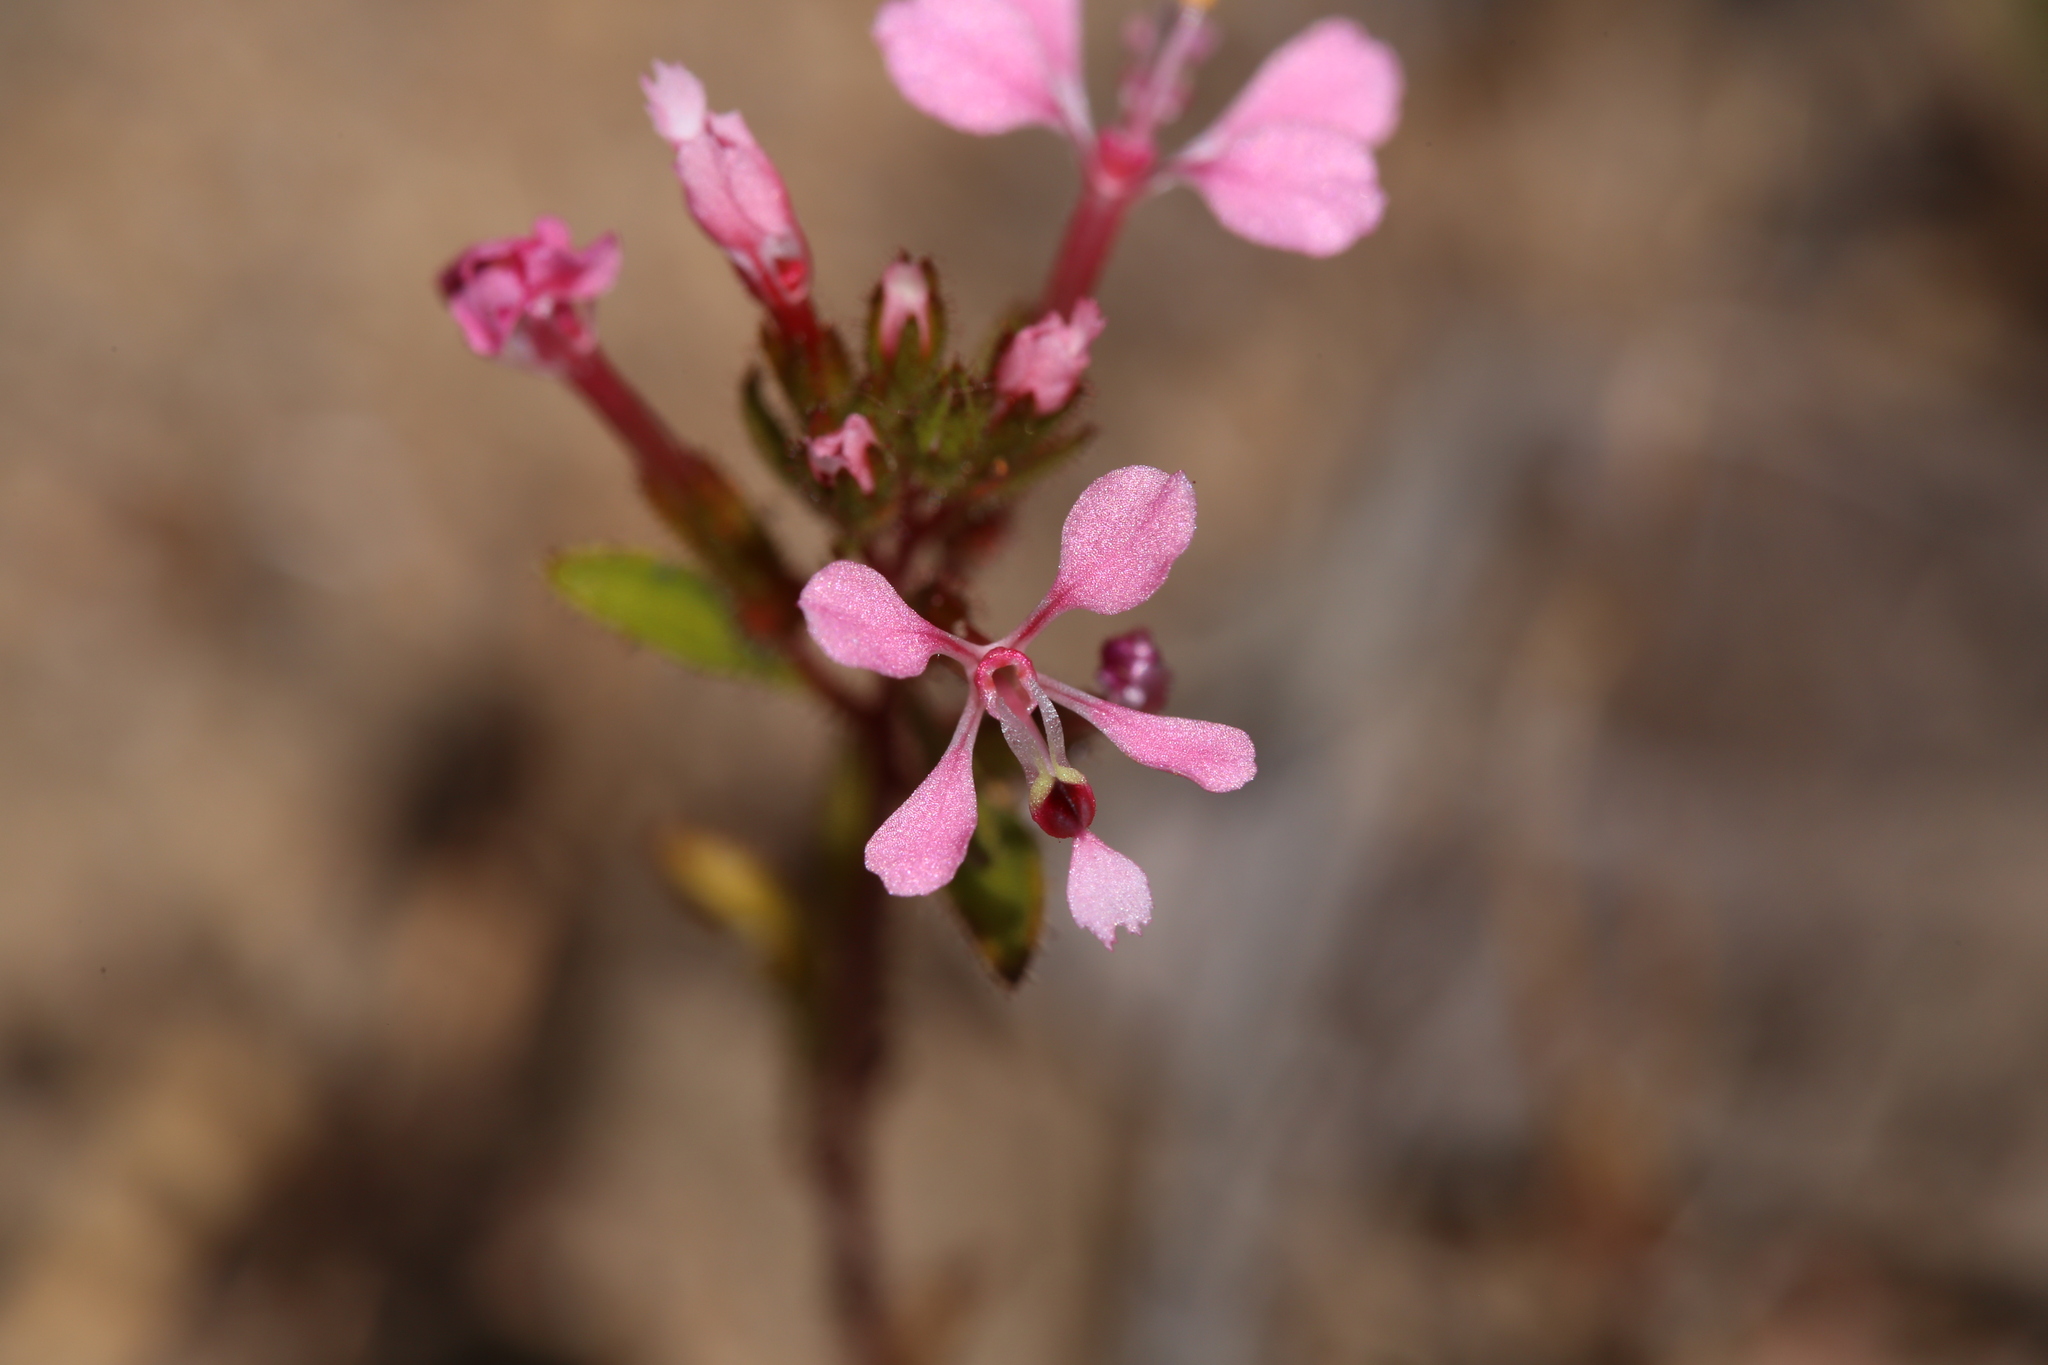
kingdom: Plantae
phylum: Tracheophyta
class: Magnoliopsida
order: Asterales
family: Stylidiaceae
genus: Levenhookia
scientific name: Levenhookia aestiva
